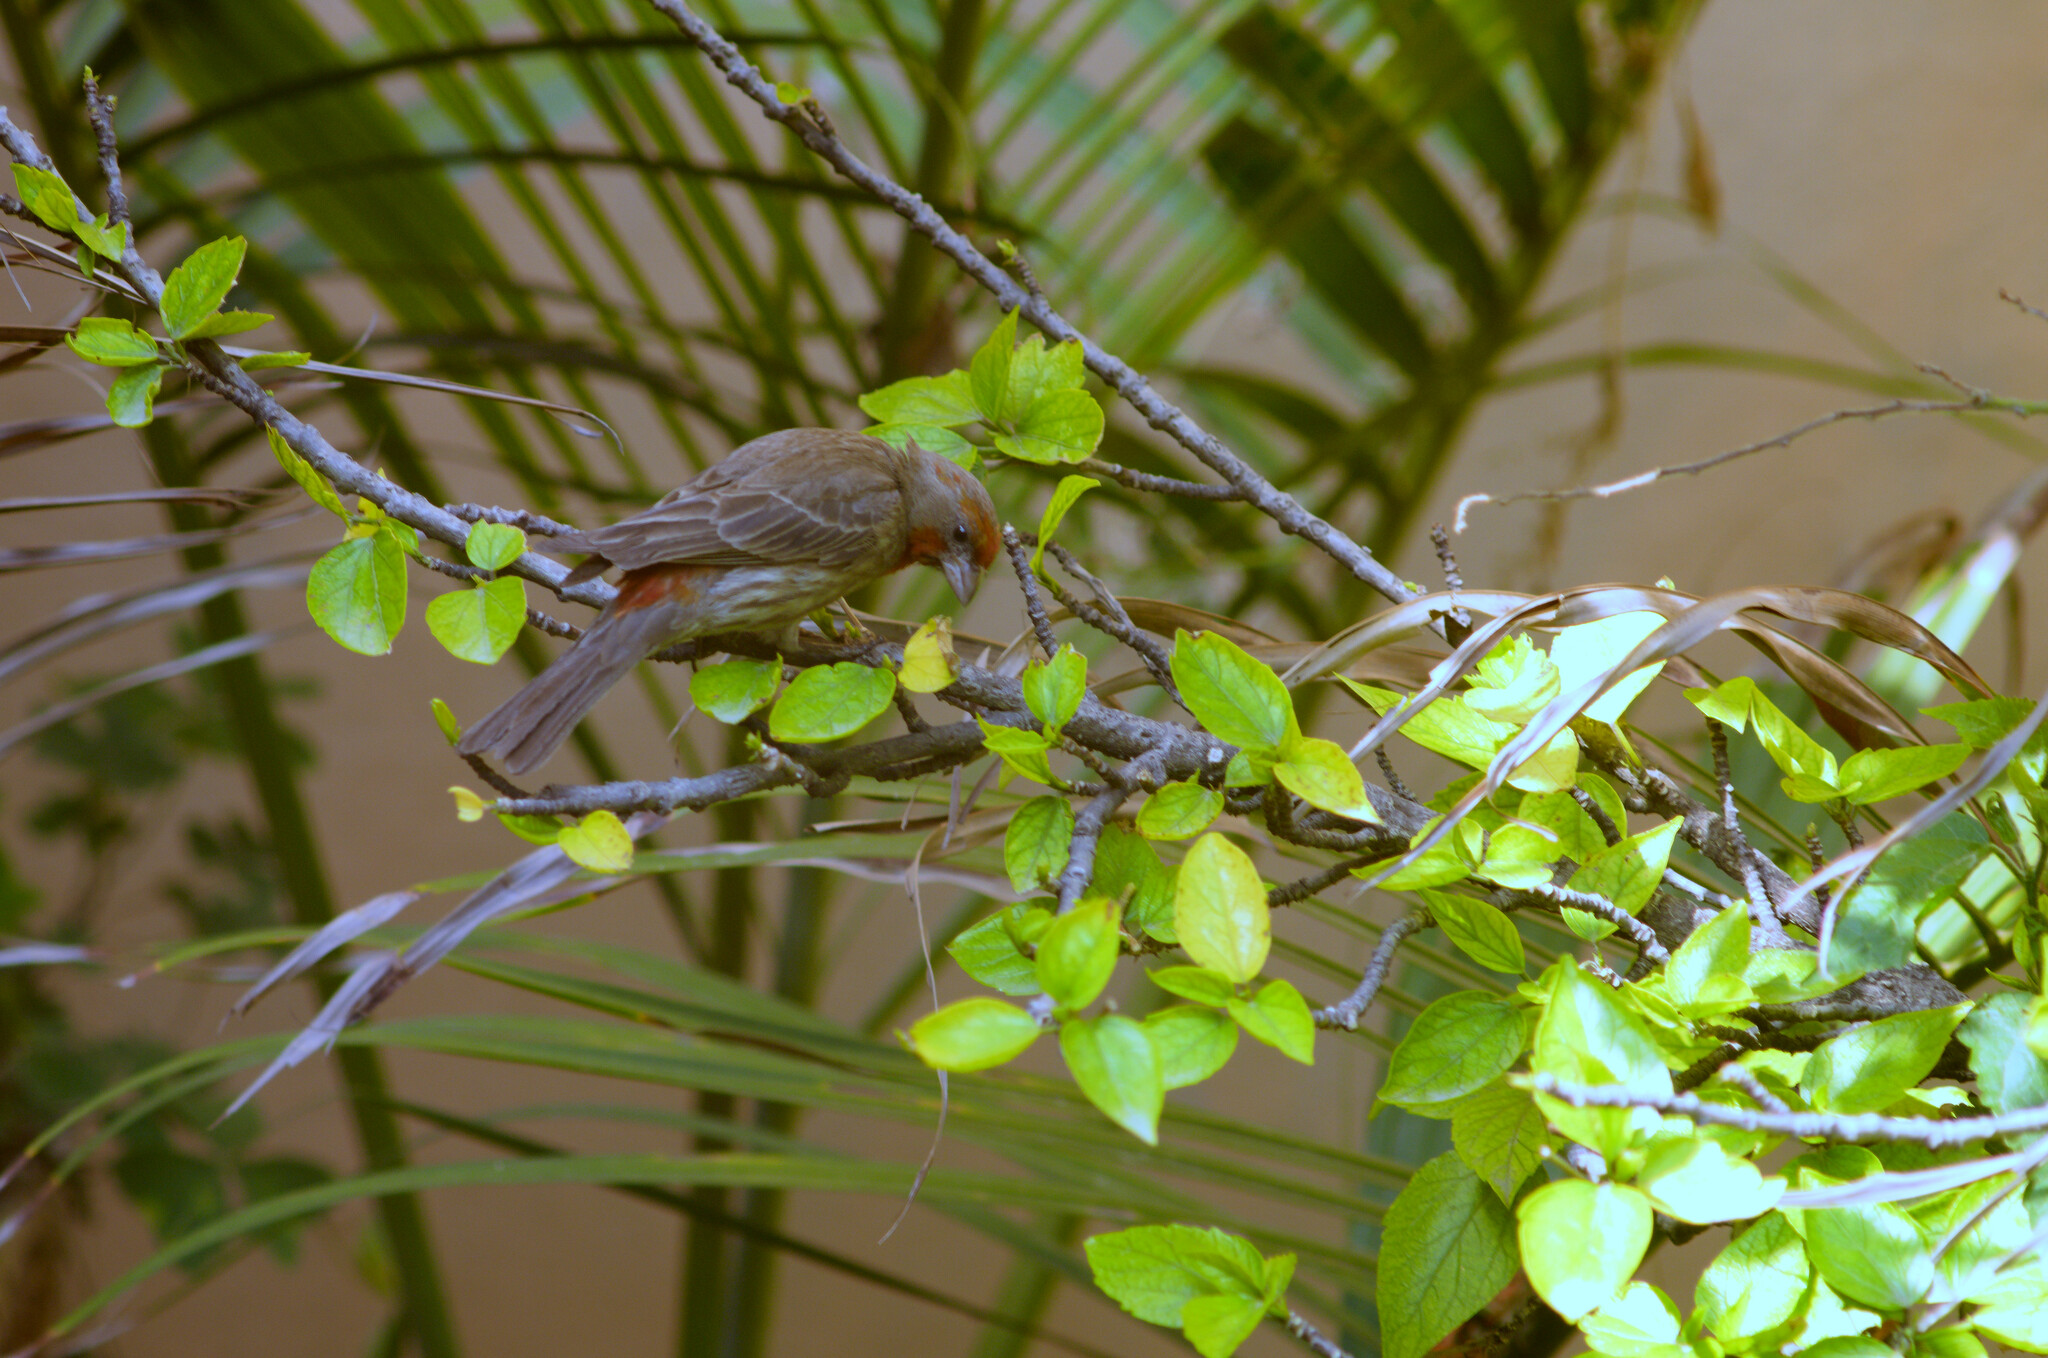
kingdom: Animalia
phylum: Chordata
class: Aves
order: Passeriformes
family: Fringillidae
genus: Haemorhous
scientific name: Haemorhous mexicanus
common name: House finch
